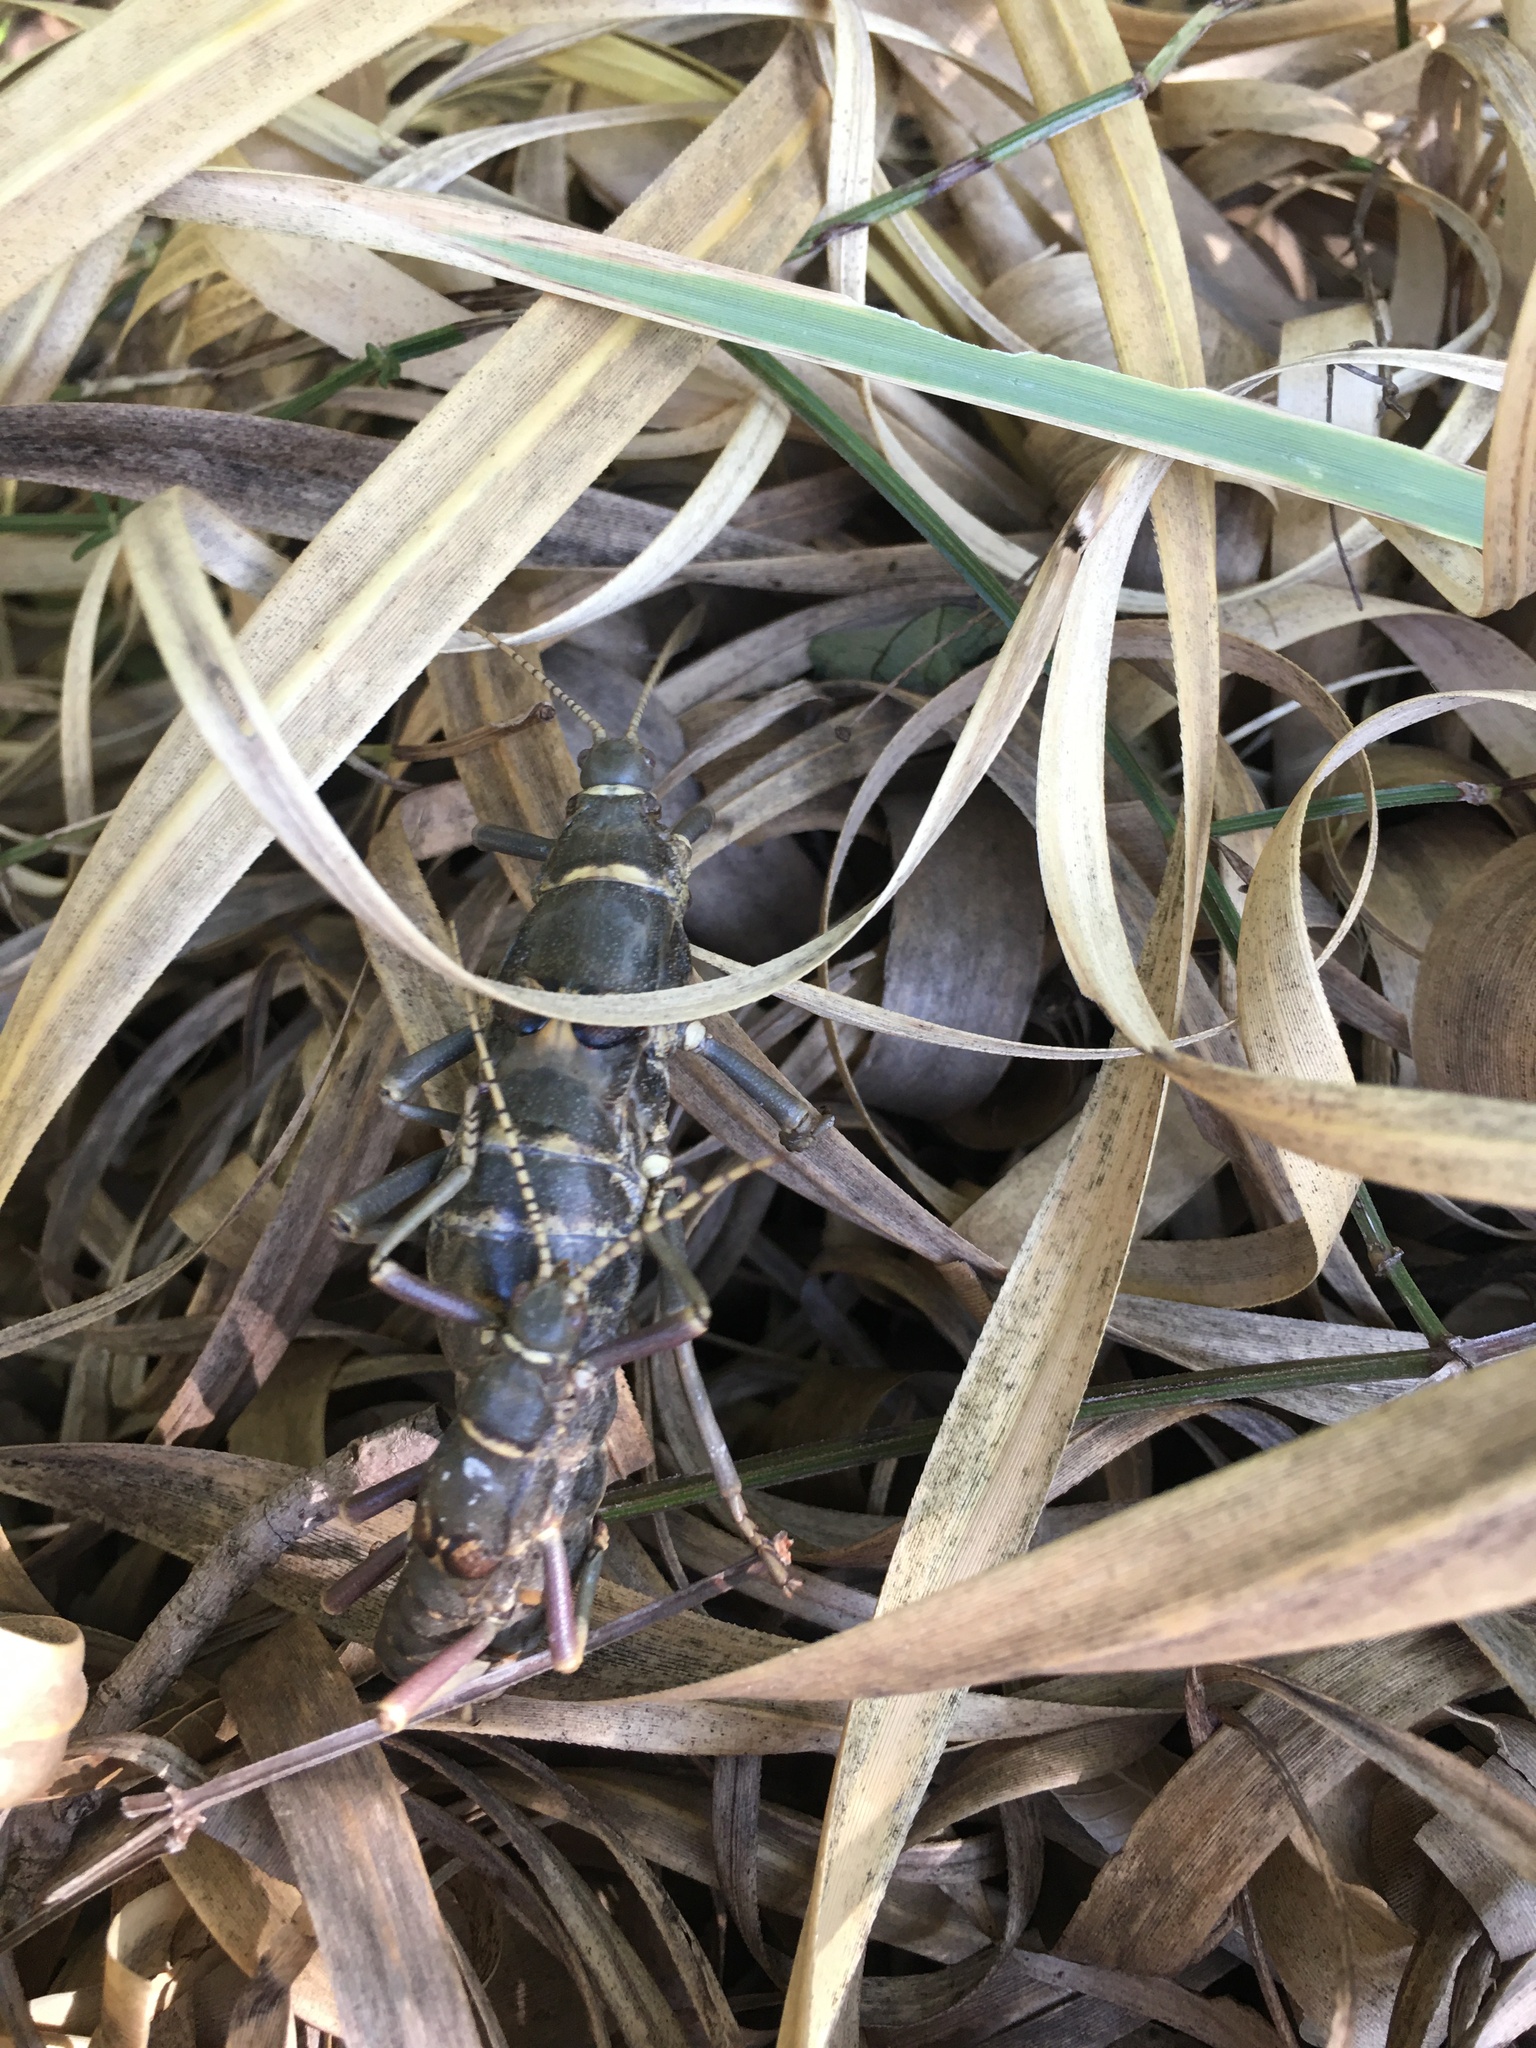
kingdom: Animalia
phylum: Arthropoda
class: Insecta
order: Phasmida
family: Agathemeridae
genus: Agathemera
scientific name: Agathemera luteola
